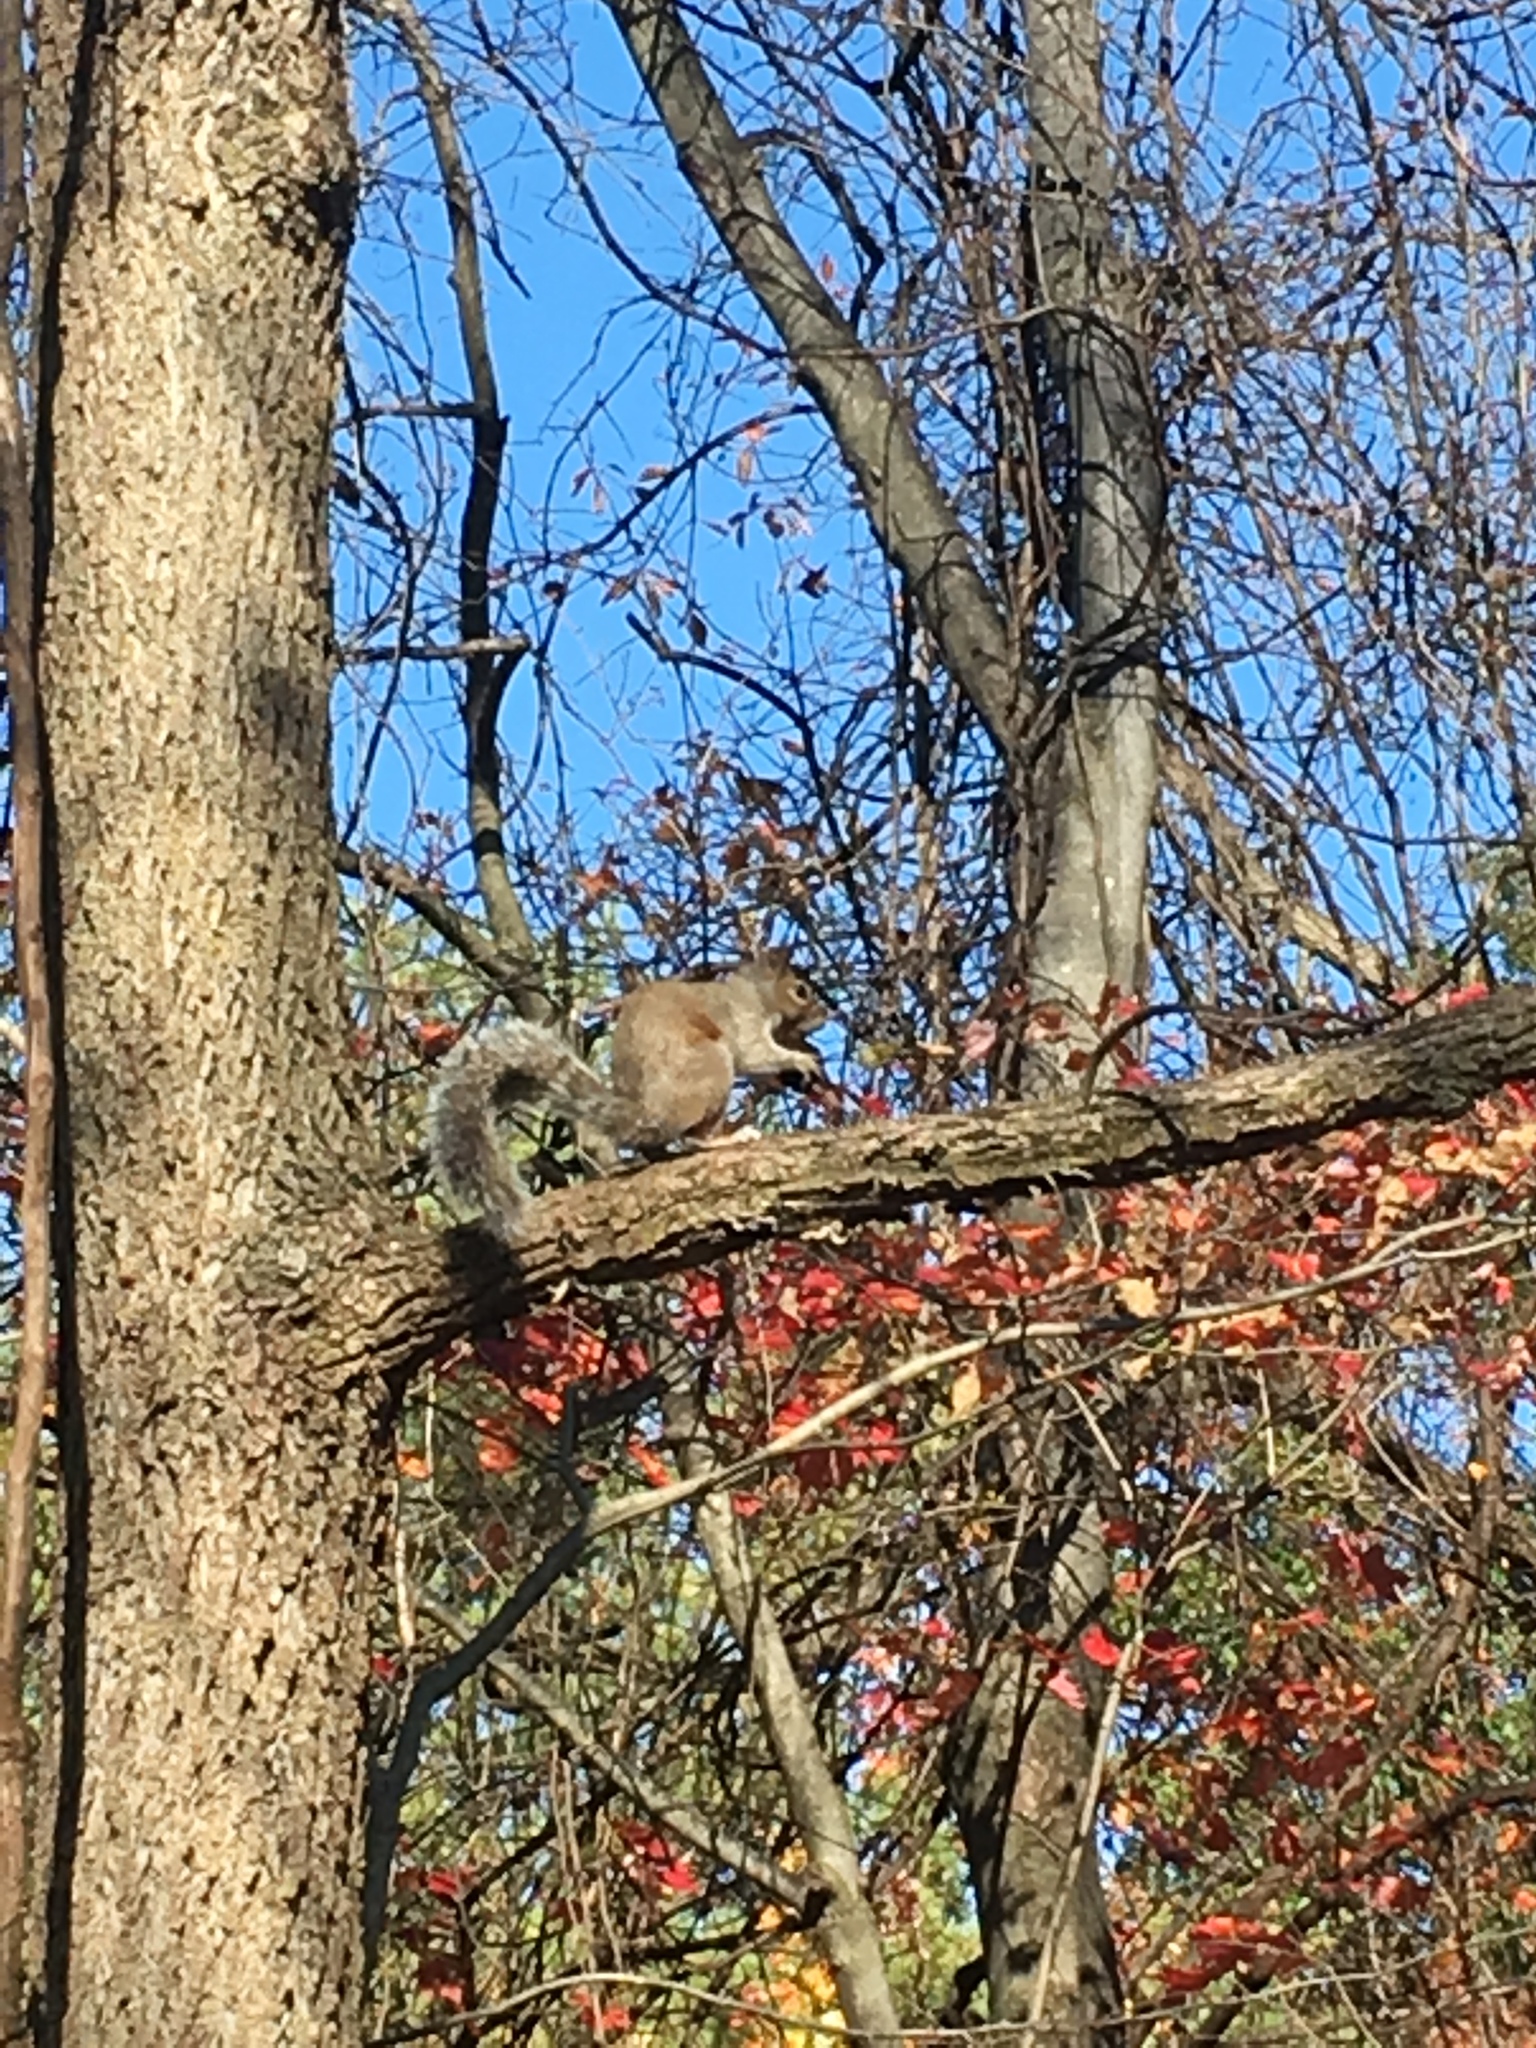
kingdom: Animalia
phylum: Chordata
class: Mammalia
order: Rodentia
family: Sciuridae
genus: Sciurus
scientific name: Sciurus carolinensis
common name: Eastern gray squirrel
